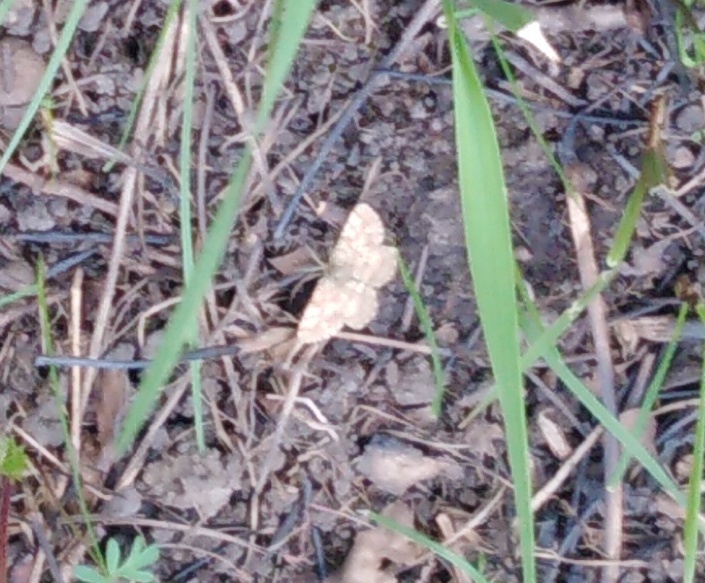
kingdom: Animalia
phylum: Arthropoda
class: Insecta
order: Lepidoptera
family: Geometridae
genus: Ematurga
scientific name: Ematurga atomaria
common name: Common heath
